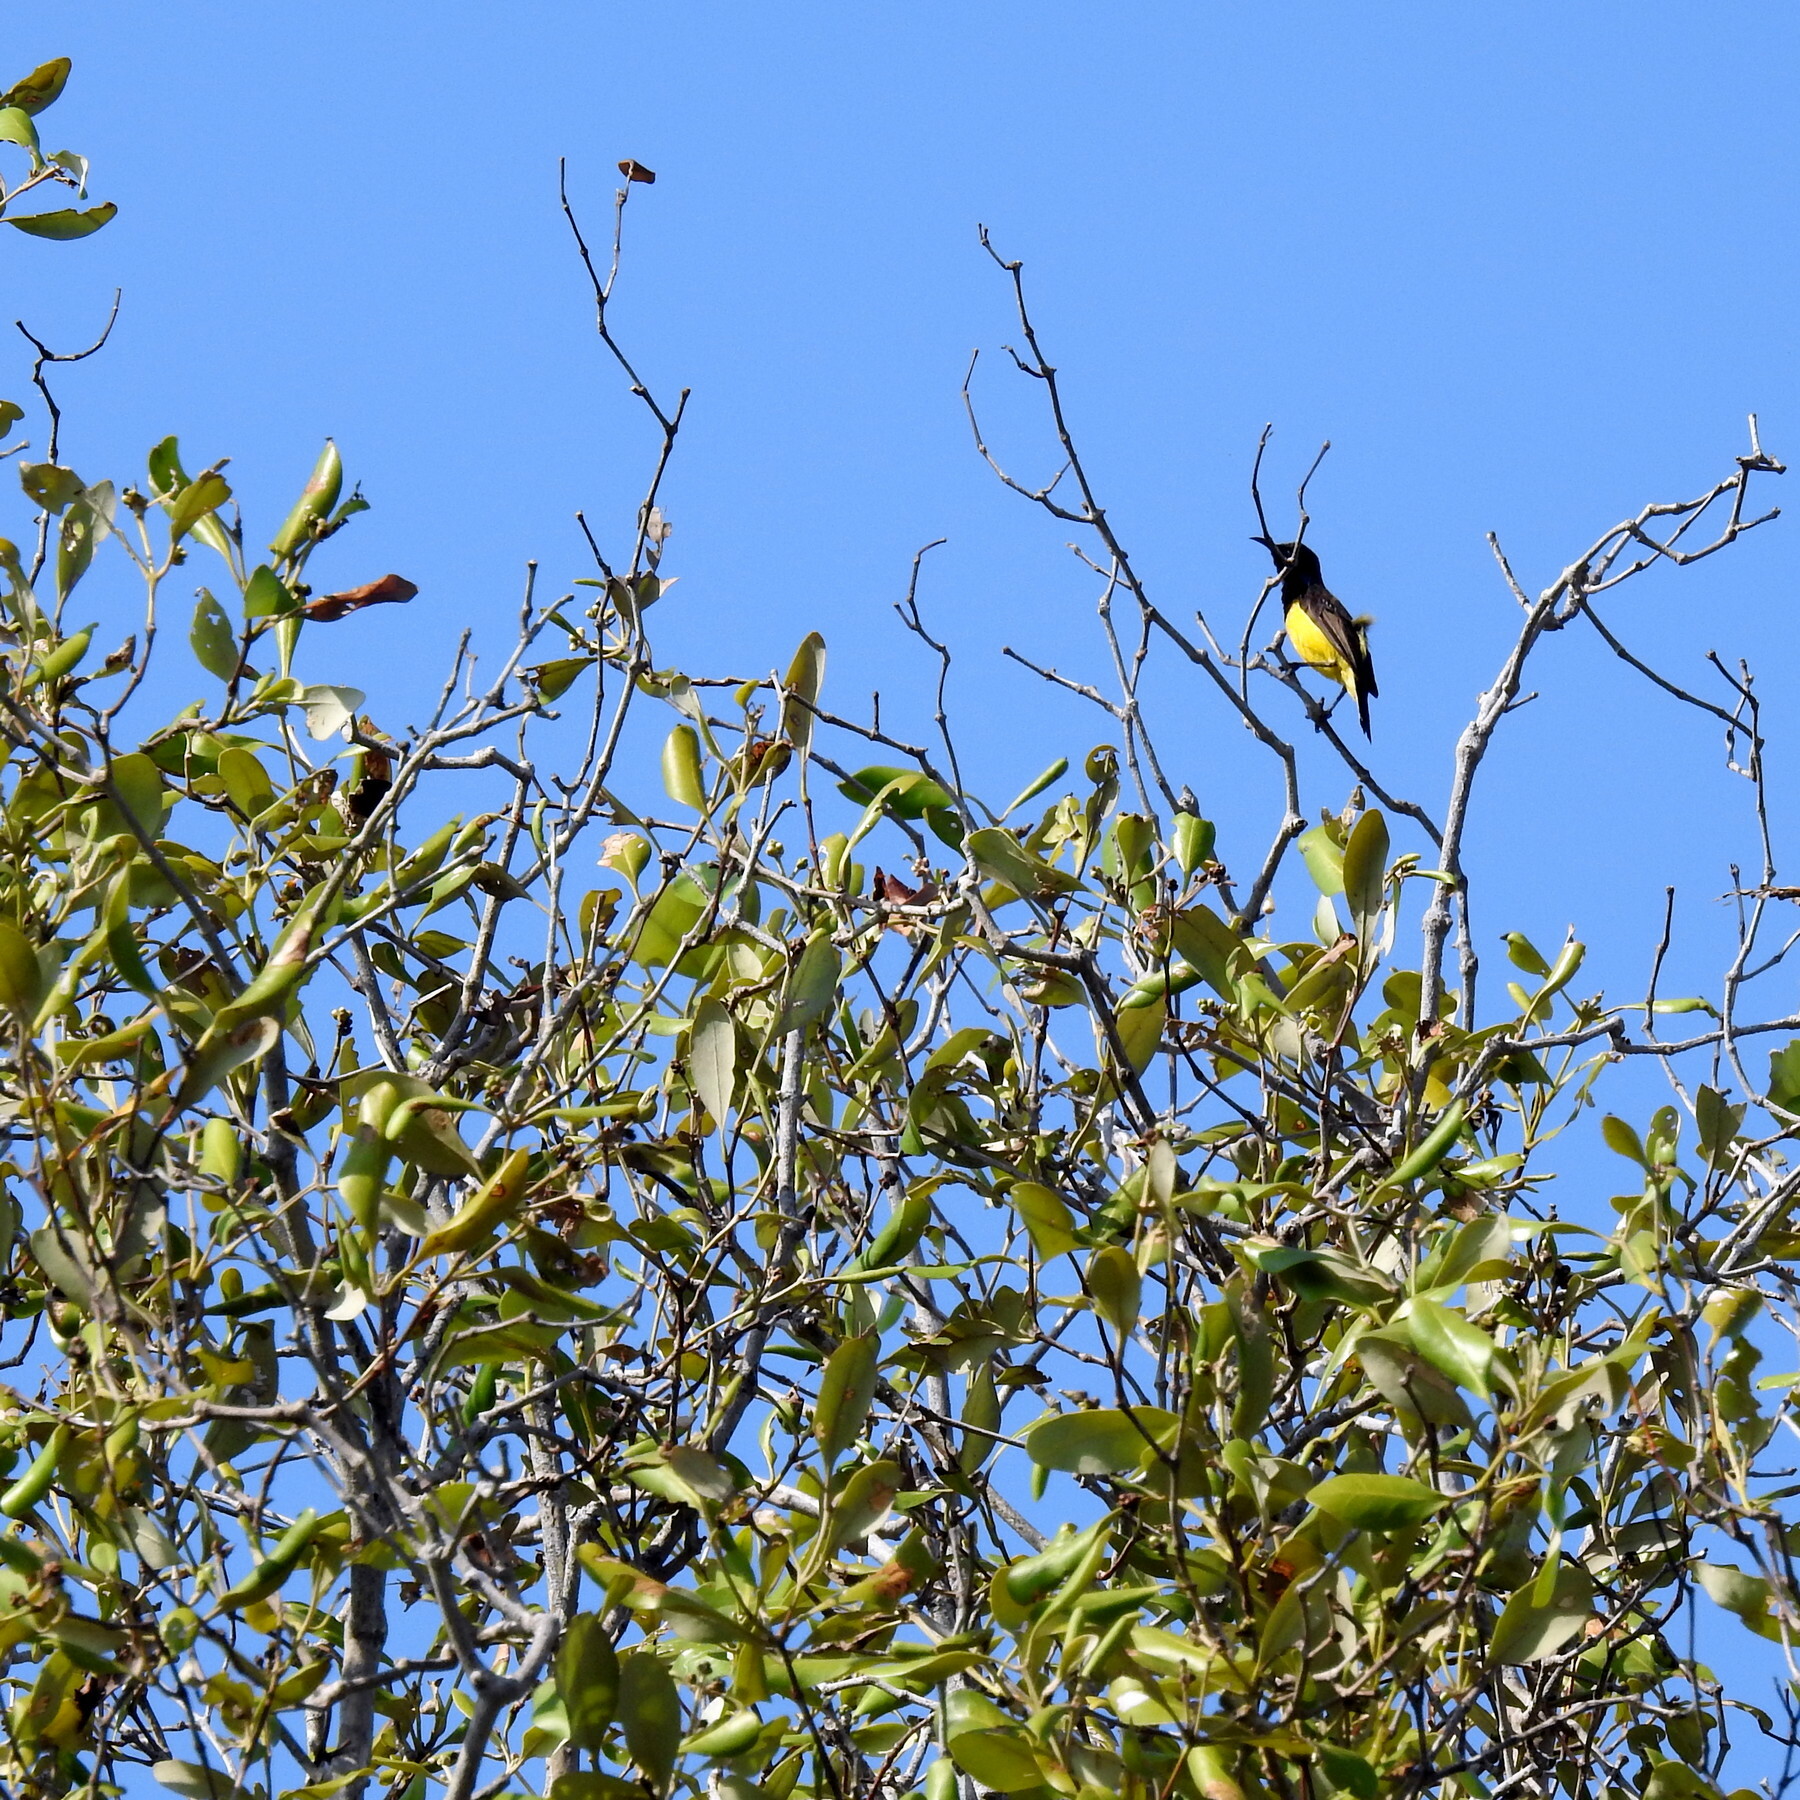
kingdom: Animalia
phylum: Chordata
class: Aves
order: Passeriformes
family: Nectariniidae
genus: Cinnyris
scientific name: Cinnyris
